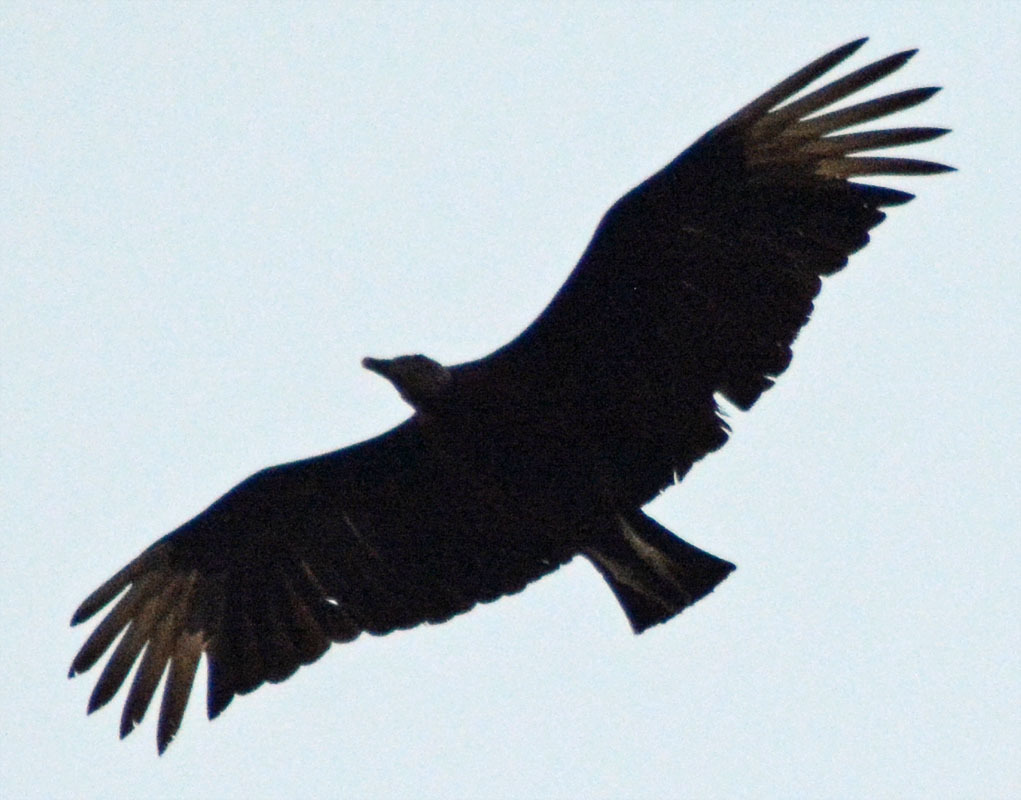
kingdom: Animalia
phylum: Chordata
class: Aves
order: Accipitriformes
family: Cathartidae
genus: Coragyps
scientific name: Coragyps atratus
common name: Black vulture
